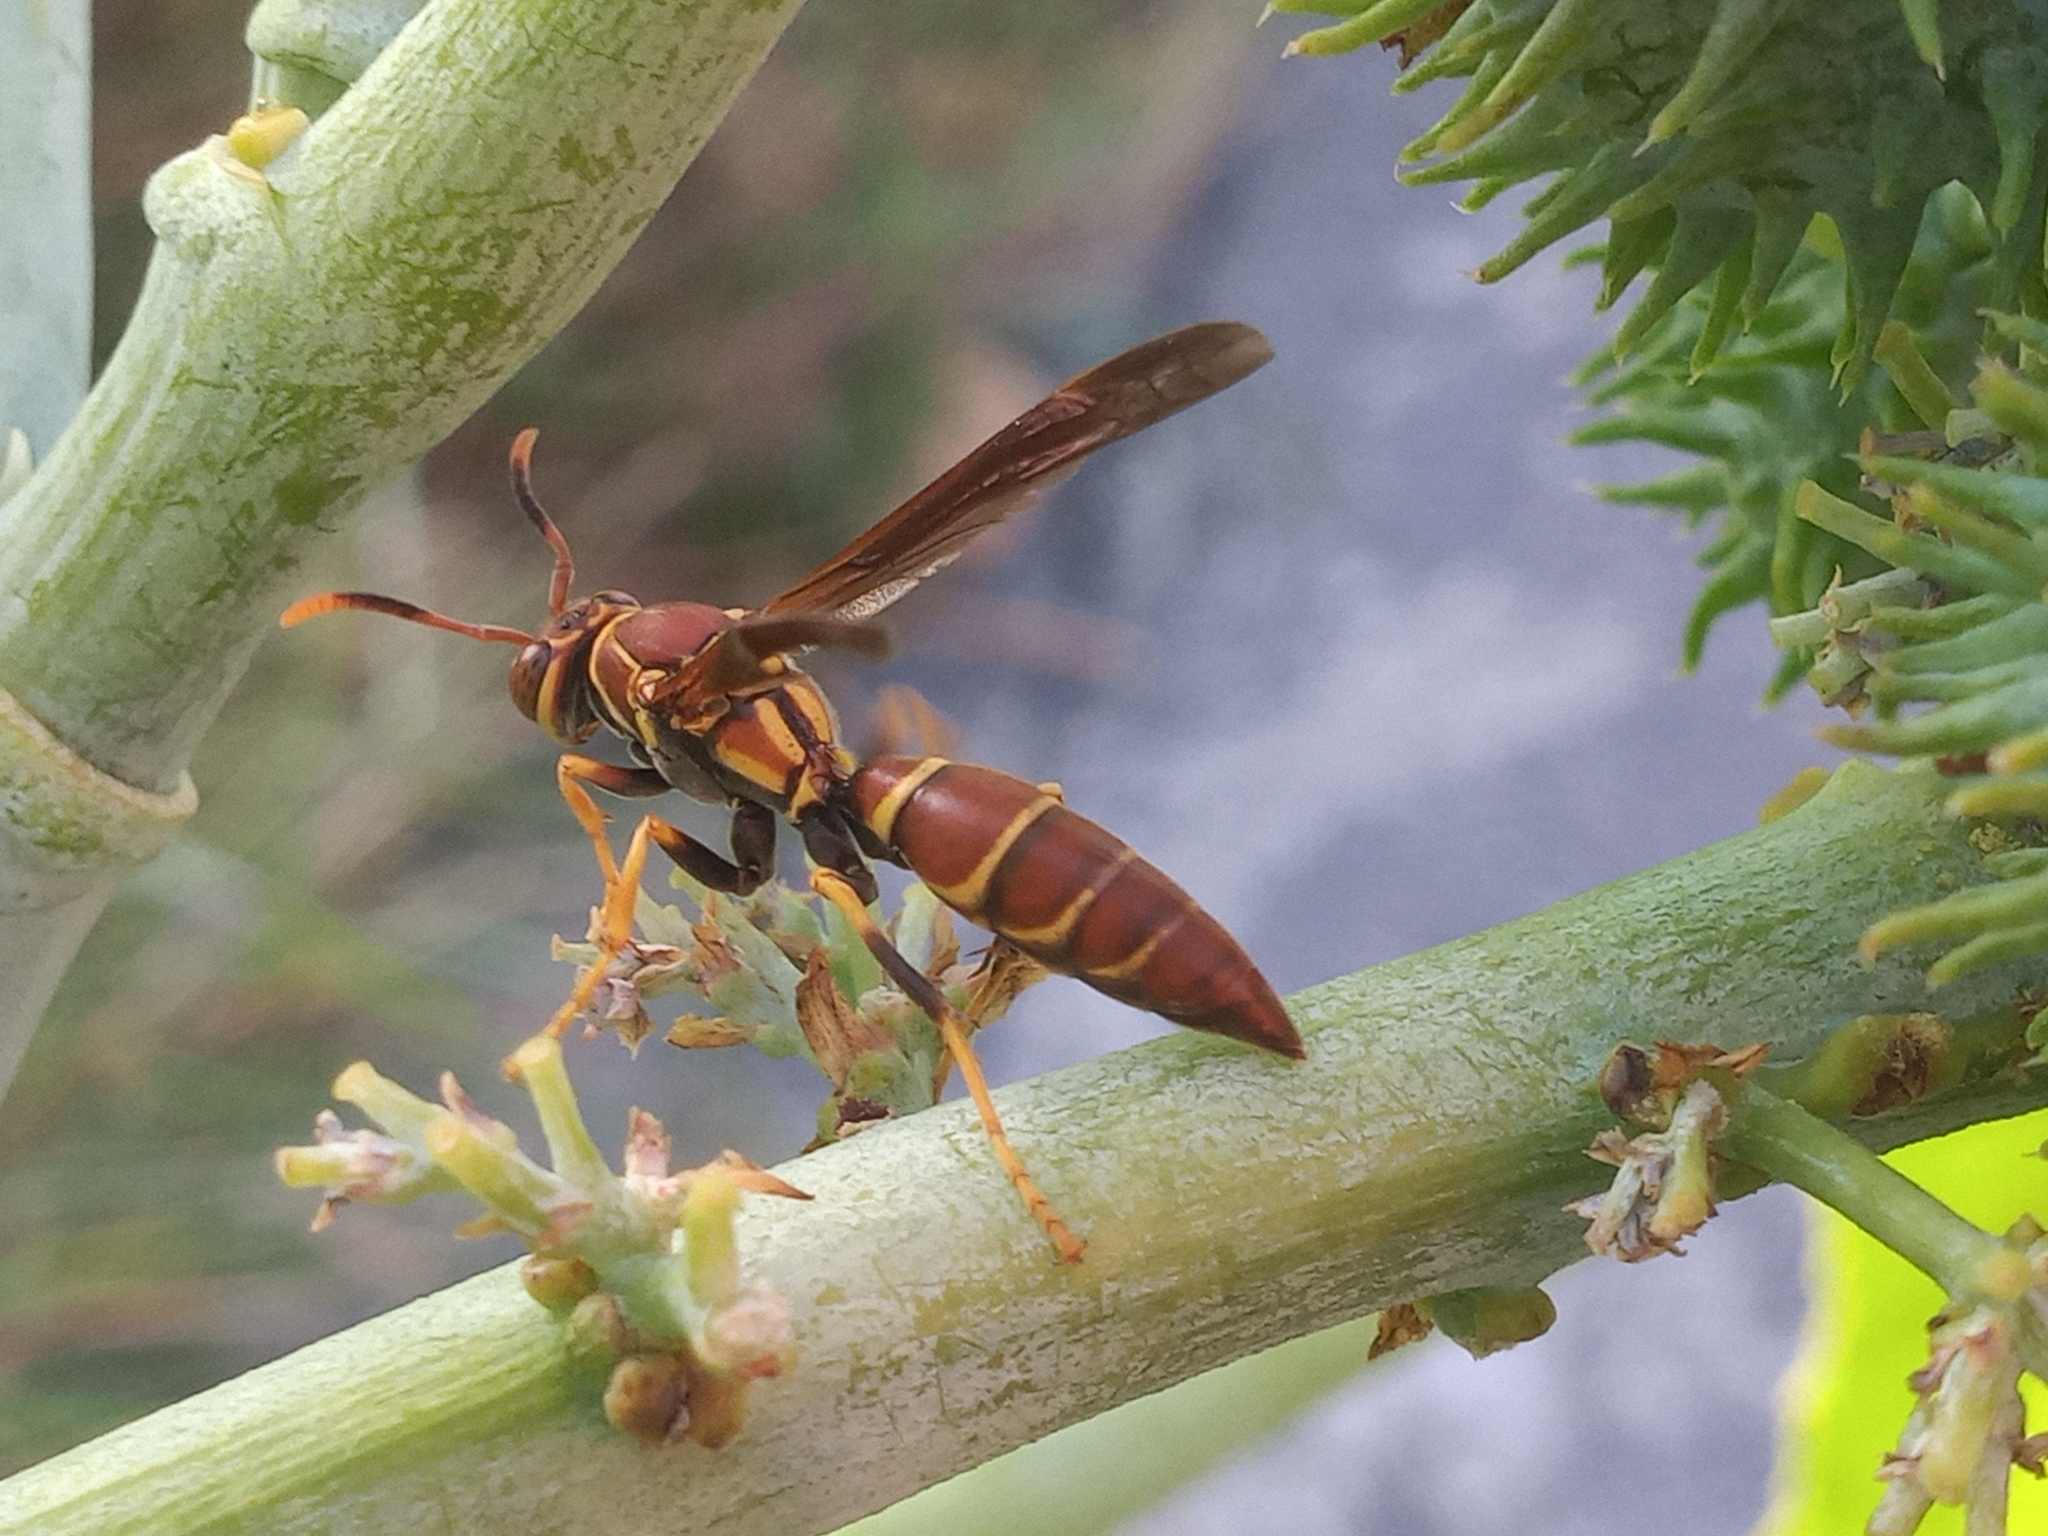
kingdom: Animalia
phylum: Arthropoda
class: Insecta
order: Hymenoptera
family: Eumenidae
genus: Polistes
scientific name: Polistes instabilis
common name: Unstable paper wasp
